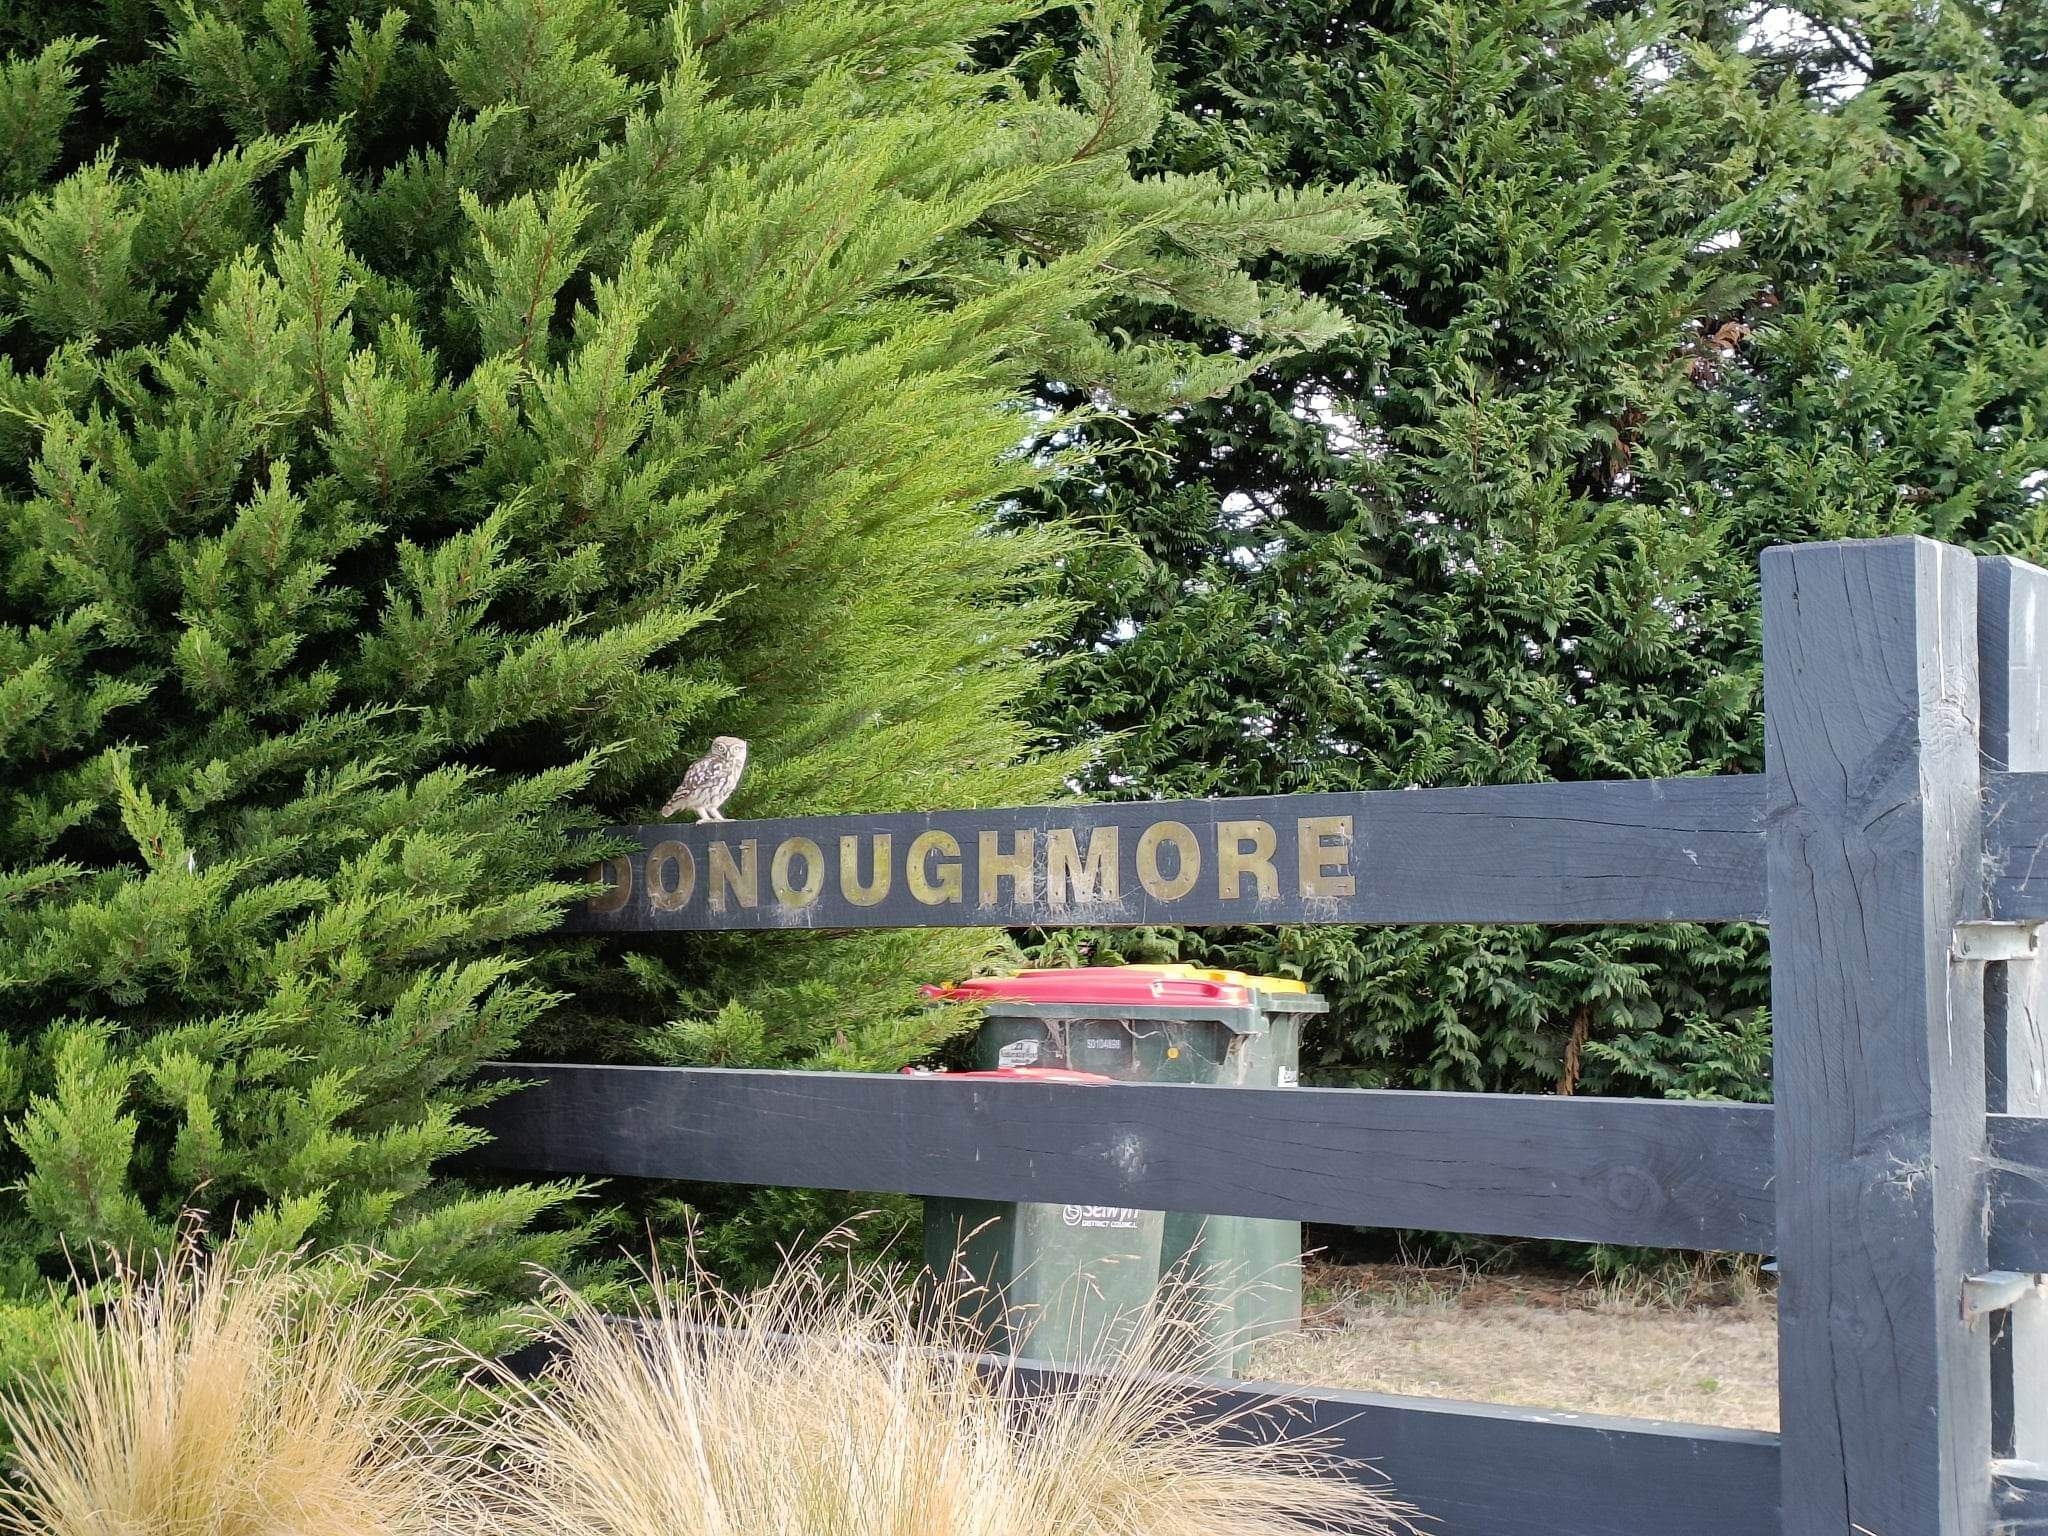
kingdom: Animalia
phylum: Chordata
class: Aves
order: Strigiformes
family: Strigidae
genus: Athene
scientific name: Athene noctua
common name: Little owl
